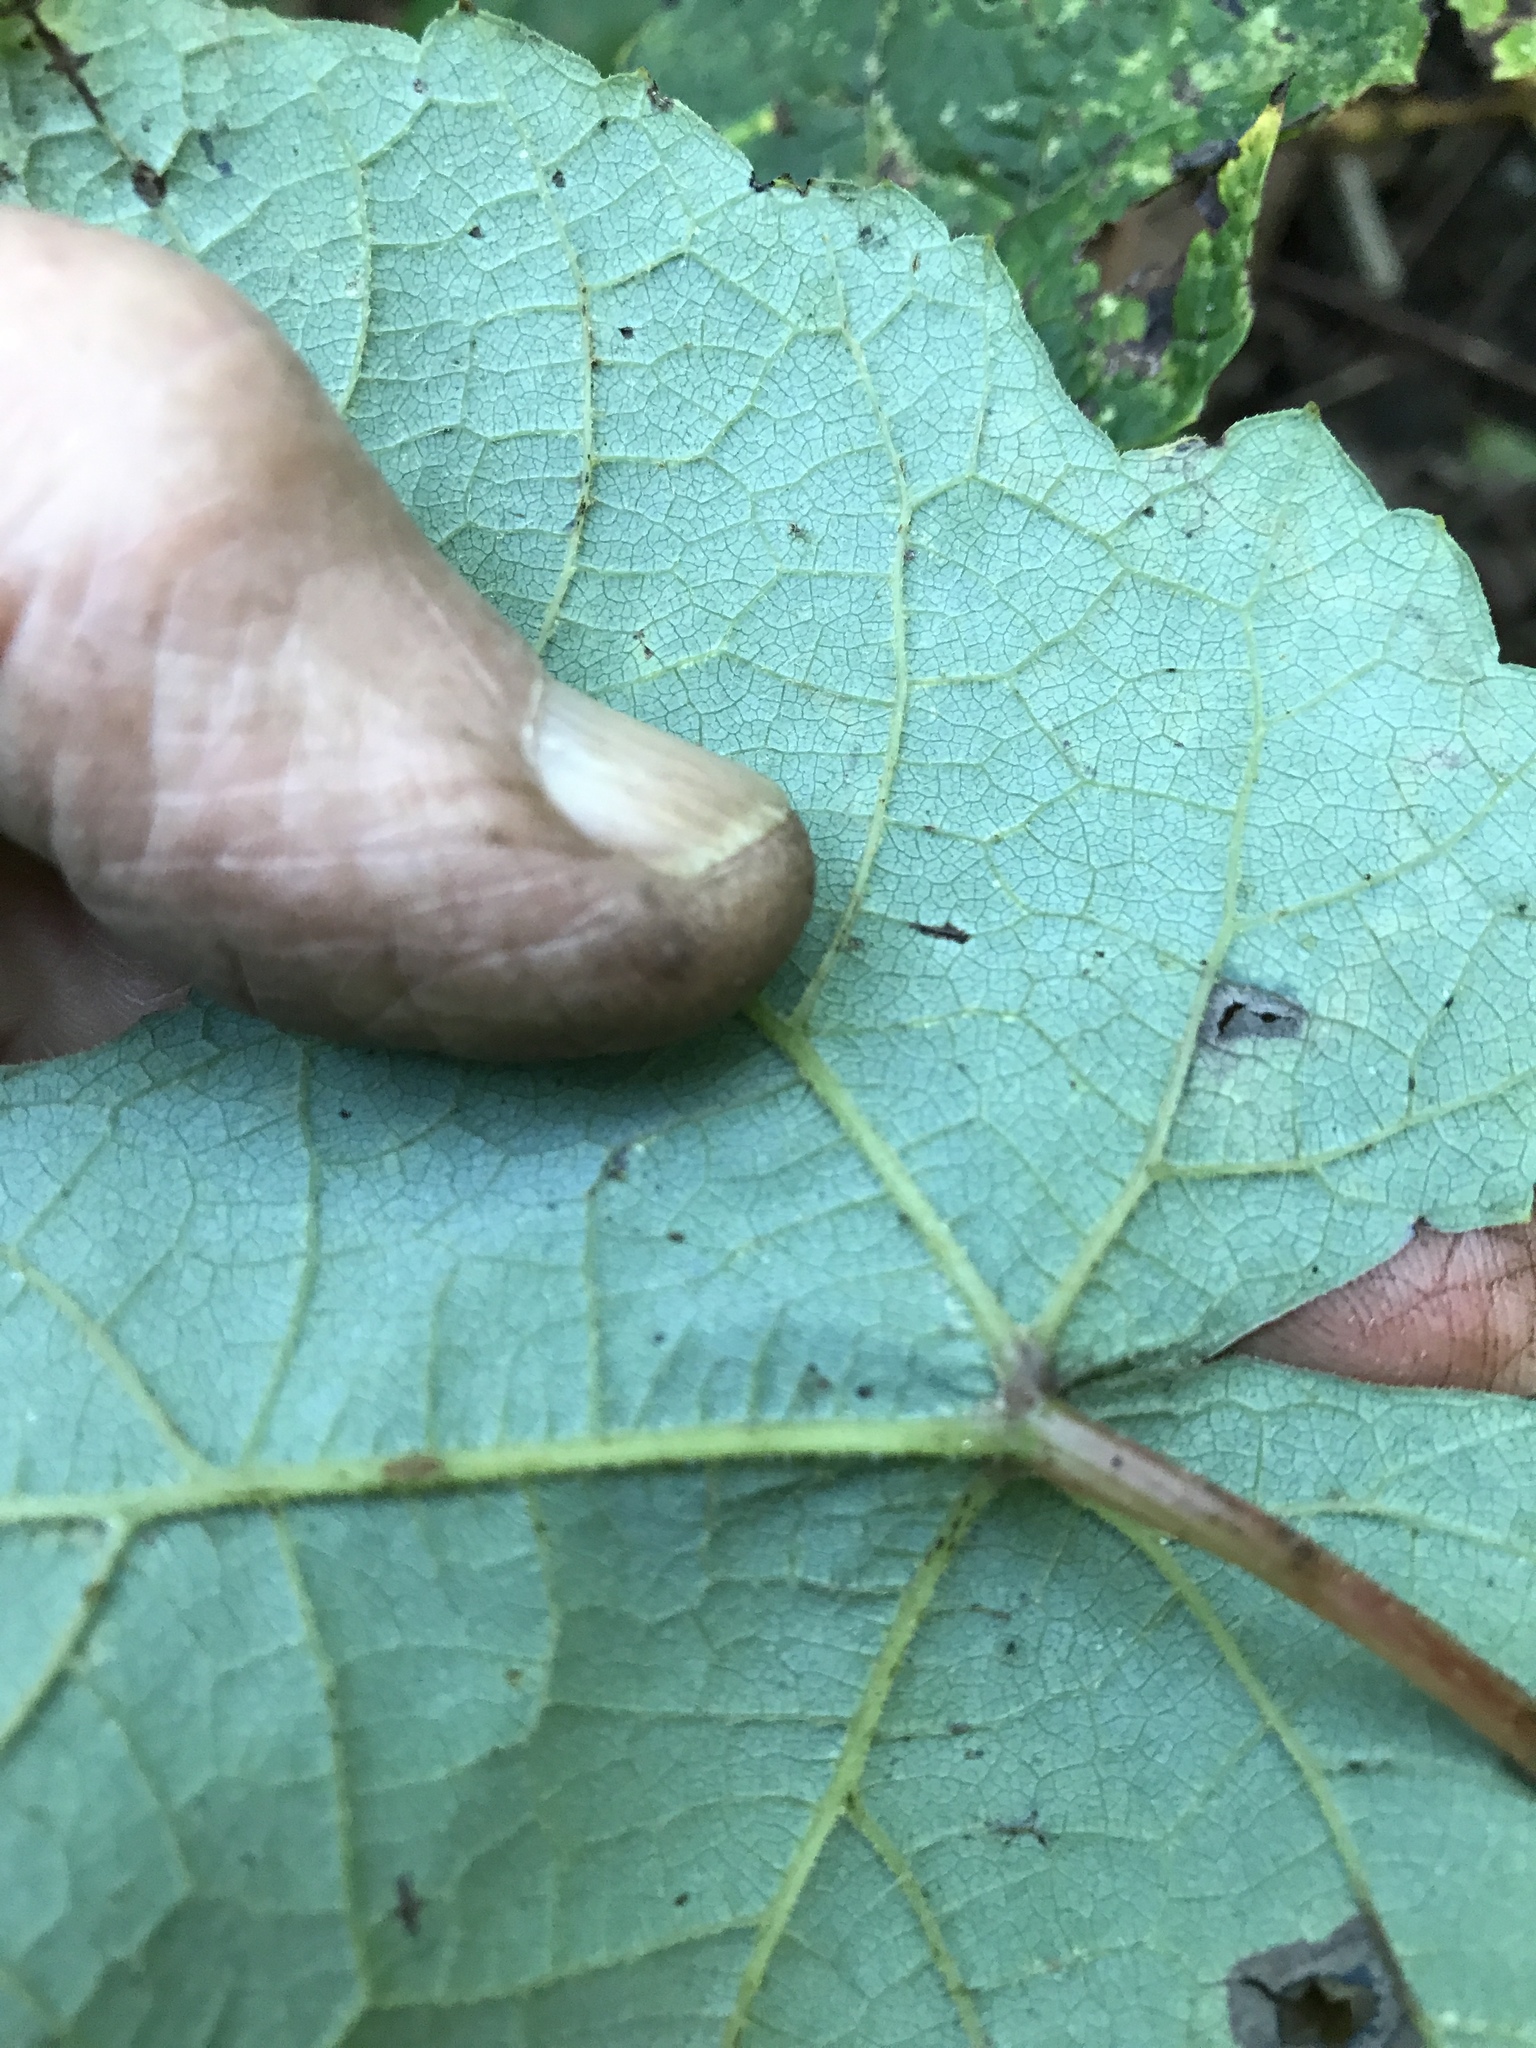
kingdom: Plantae
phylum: Tracheophyta
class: Magnoliopsida
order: Vitales
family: Vitaceae
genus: Vitis
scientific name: Vitis aestivalis
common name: Pigeon grape
